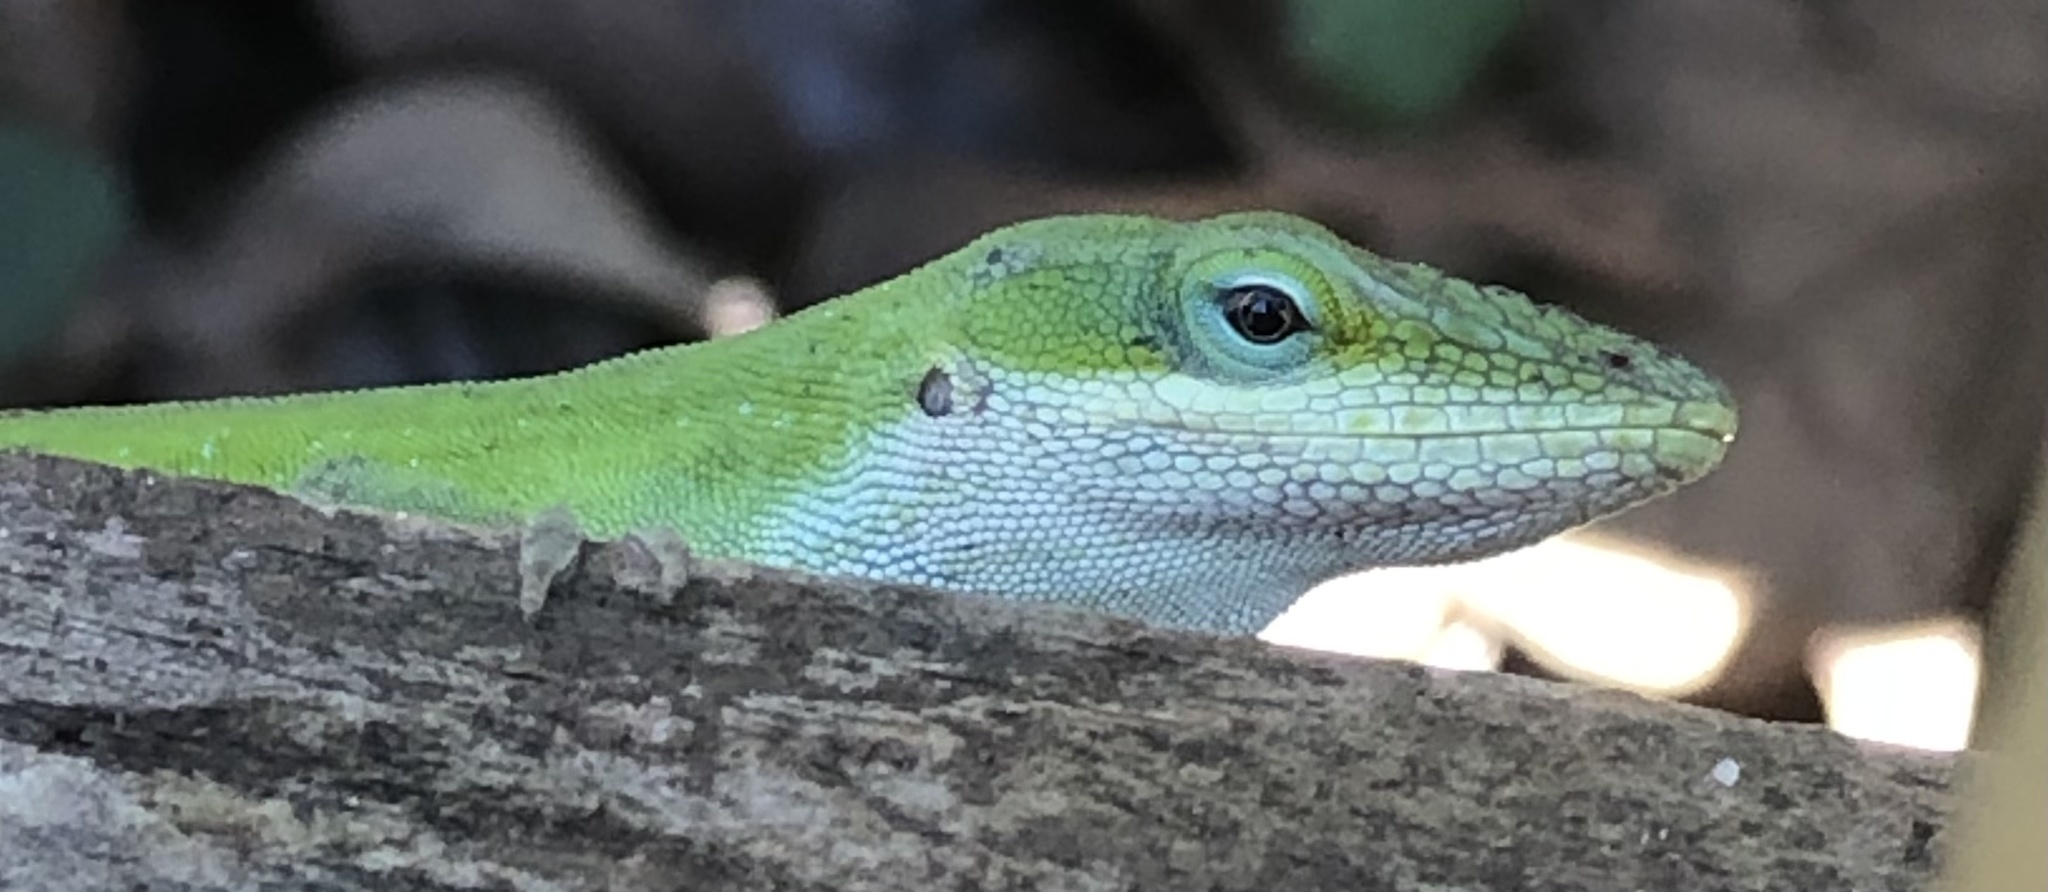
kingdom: Animalia
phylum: Chordata
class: Squamata
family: Dactyloidae
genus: Anolis
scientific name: Anolis carolinensis
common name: Green anole
